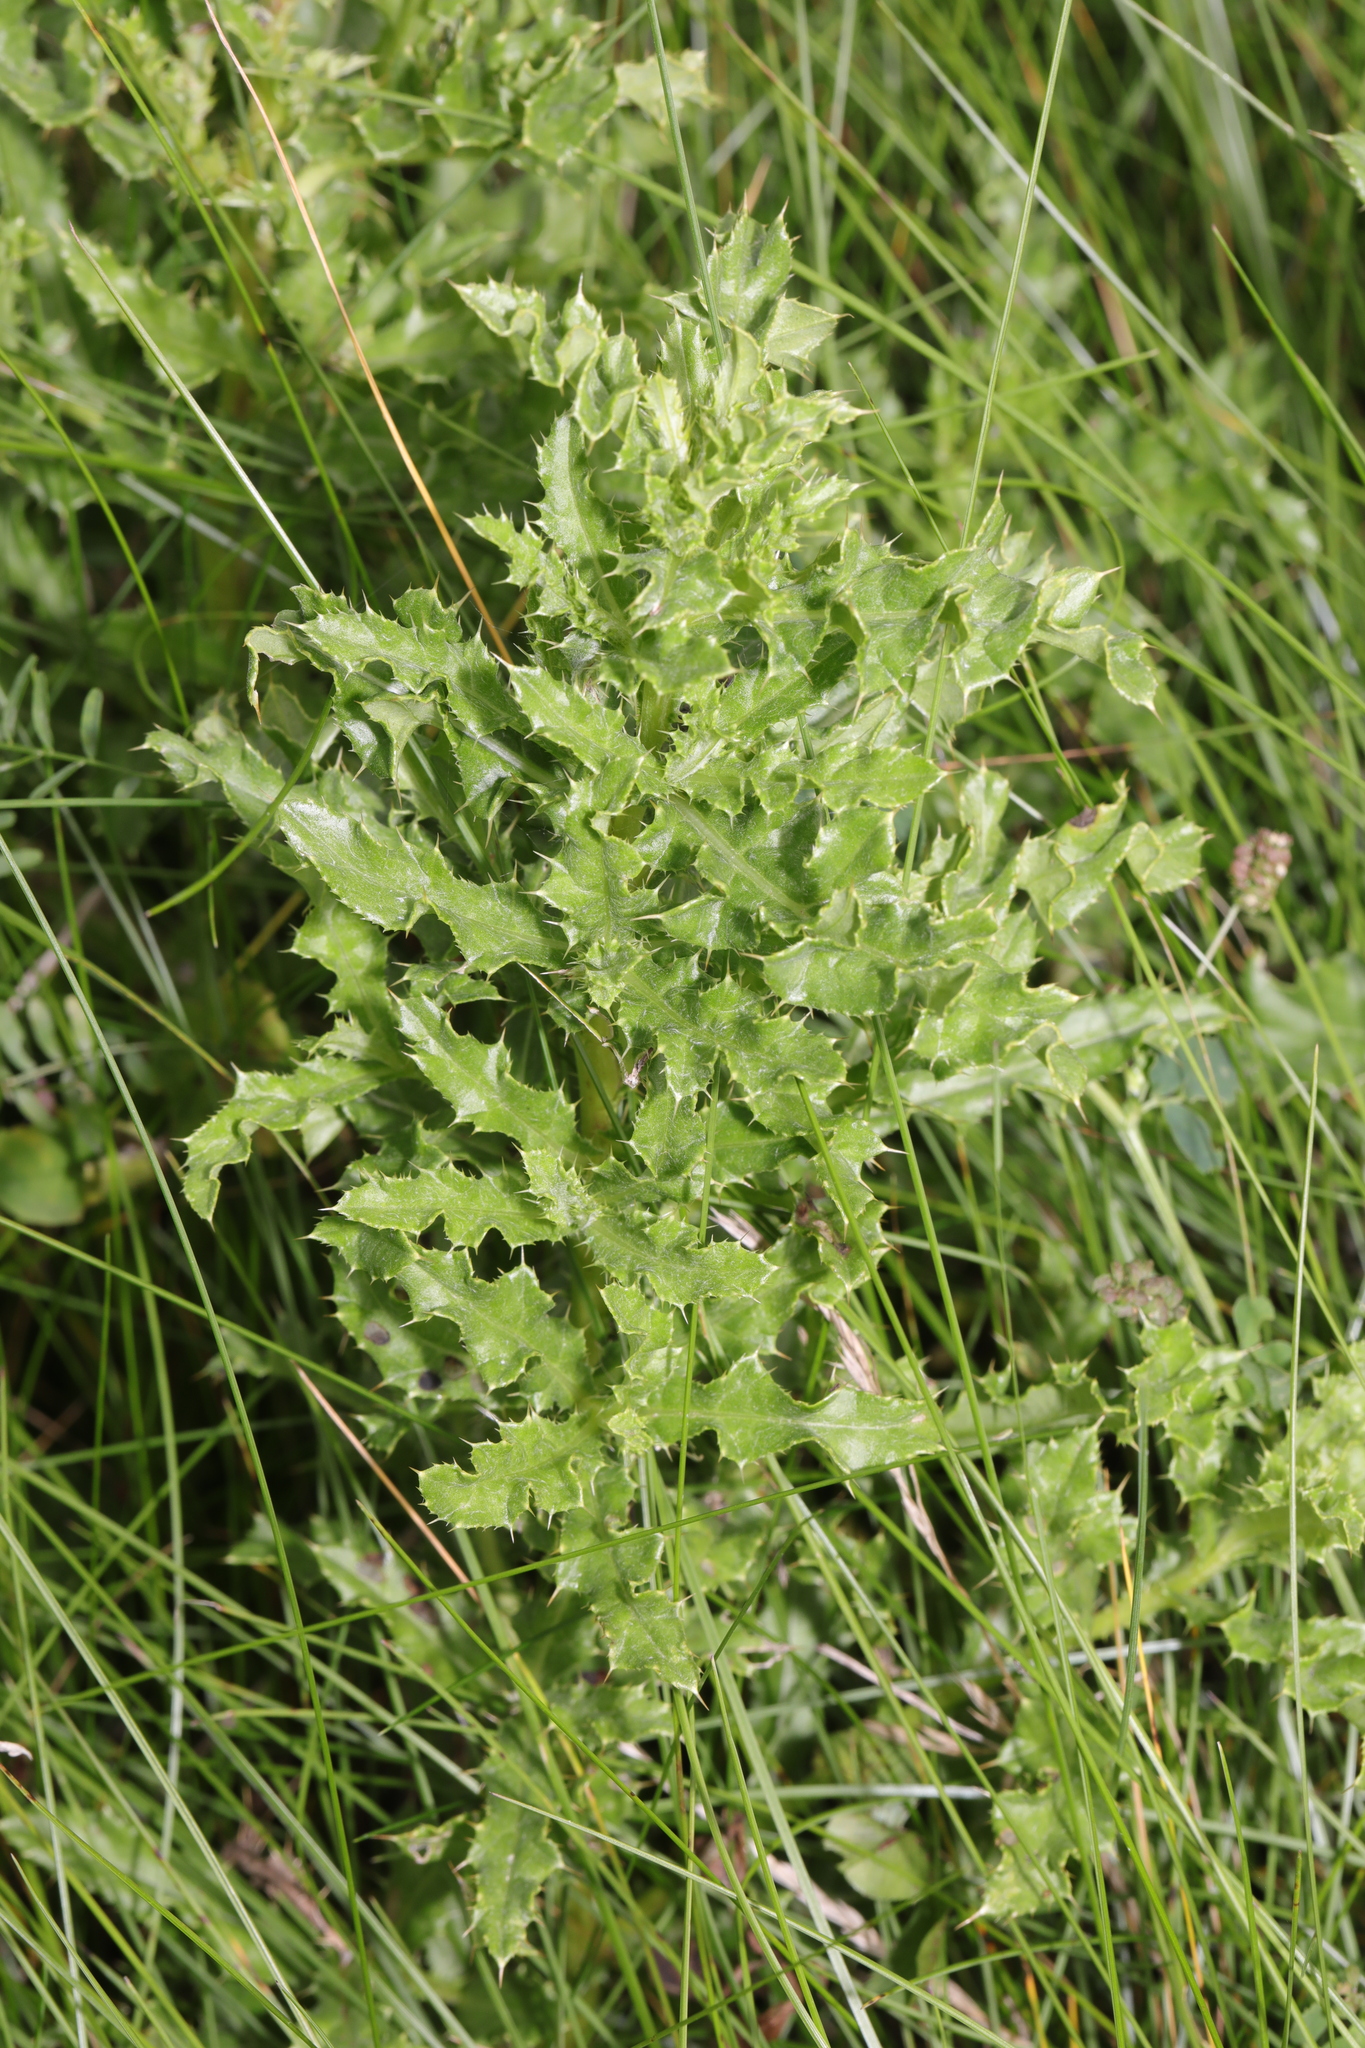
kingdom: Plantae
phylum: Tracheophyta
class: Magnoliopsida
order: Asterales
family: Asteraceae
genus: Cirsium
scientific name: Cirsium arvense
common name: Creeping thistle
